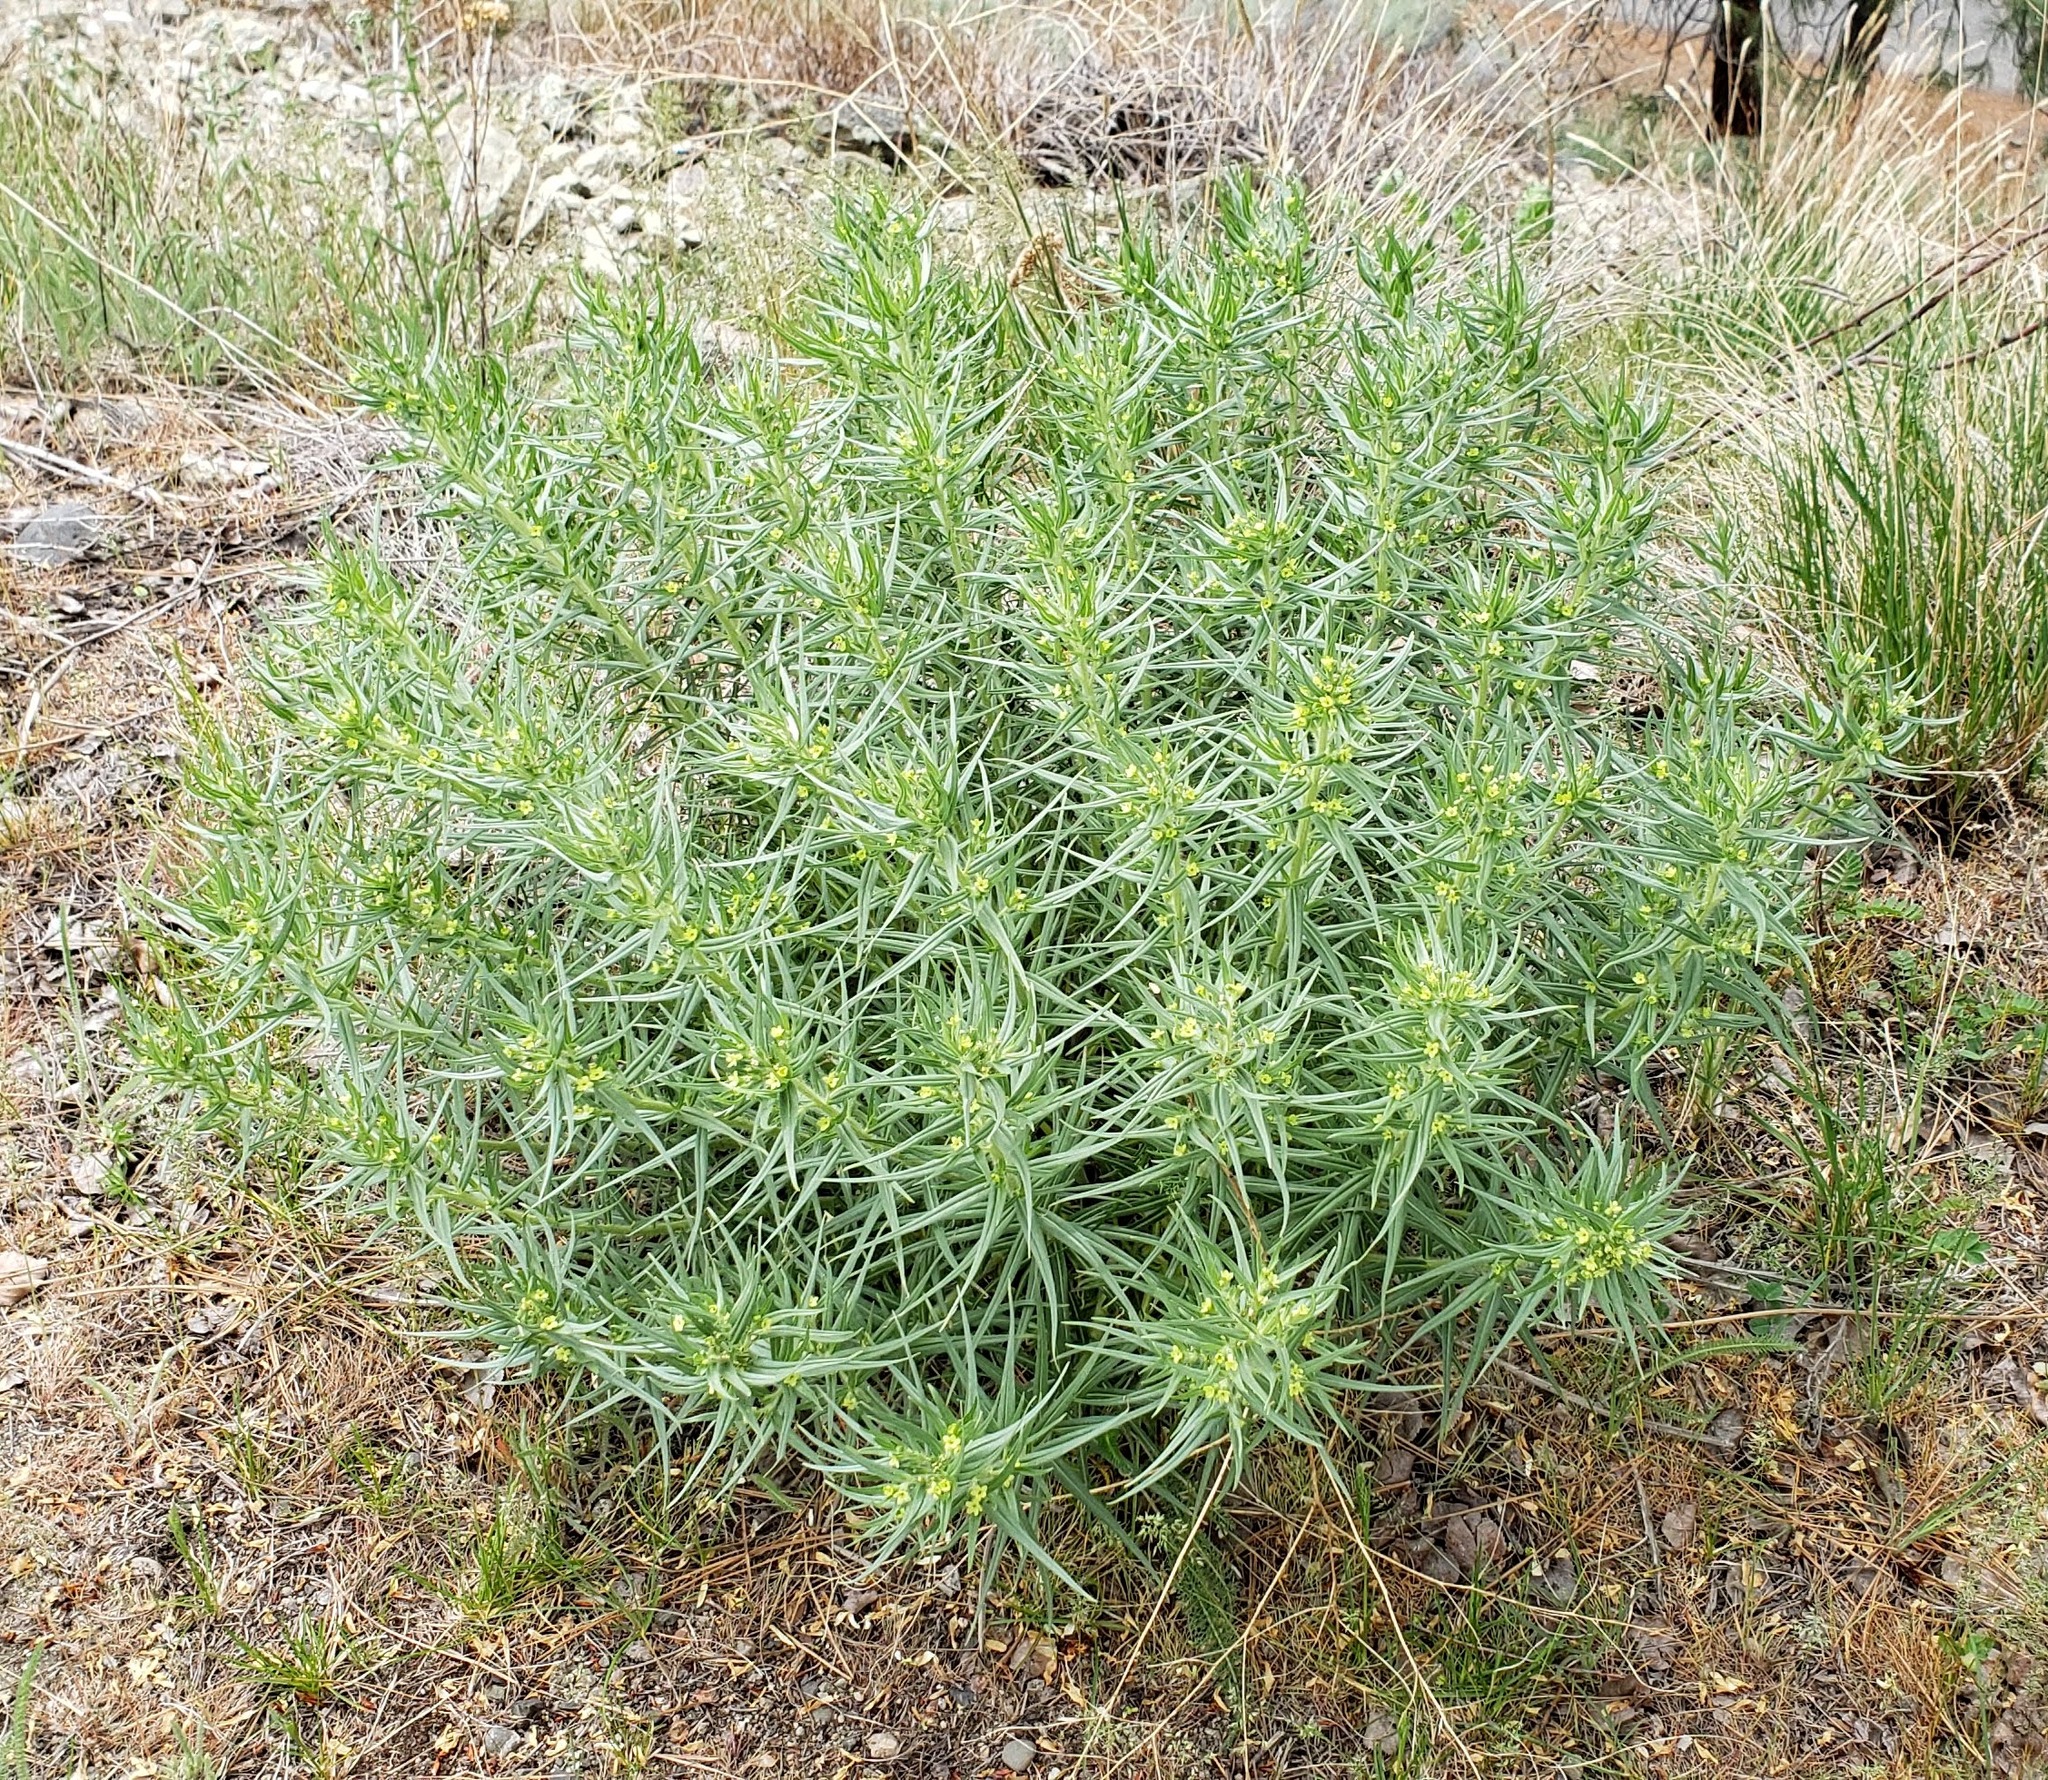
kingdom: Plantae
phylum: Tracheophyta
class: Magnoliopsida
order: Boraginales
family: Boraginaceae
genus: Lithospermum
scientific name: Lithospermum ruderale
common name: Western gromwell
